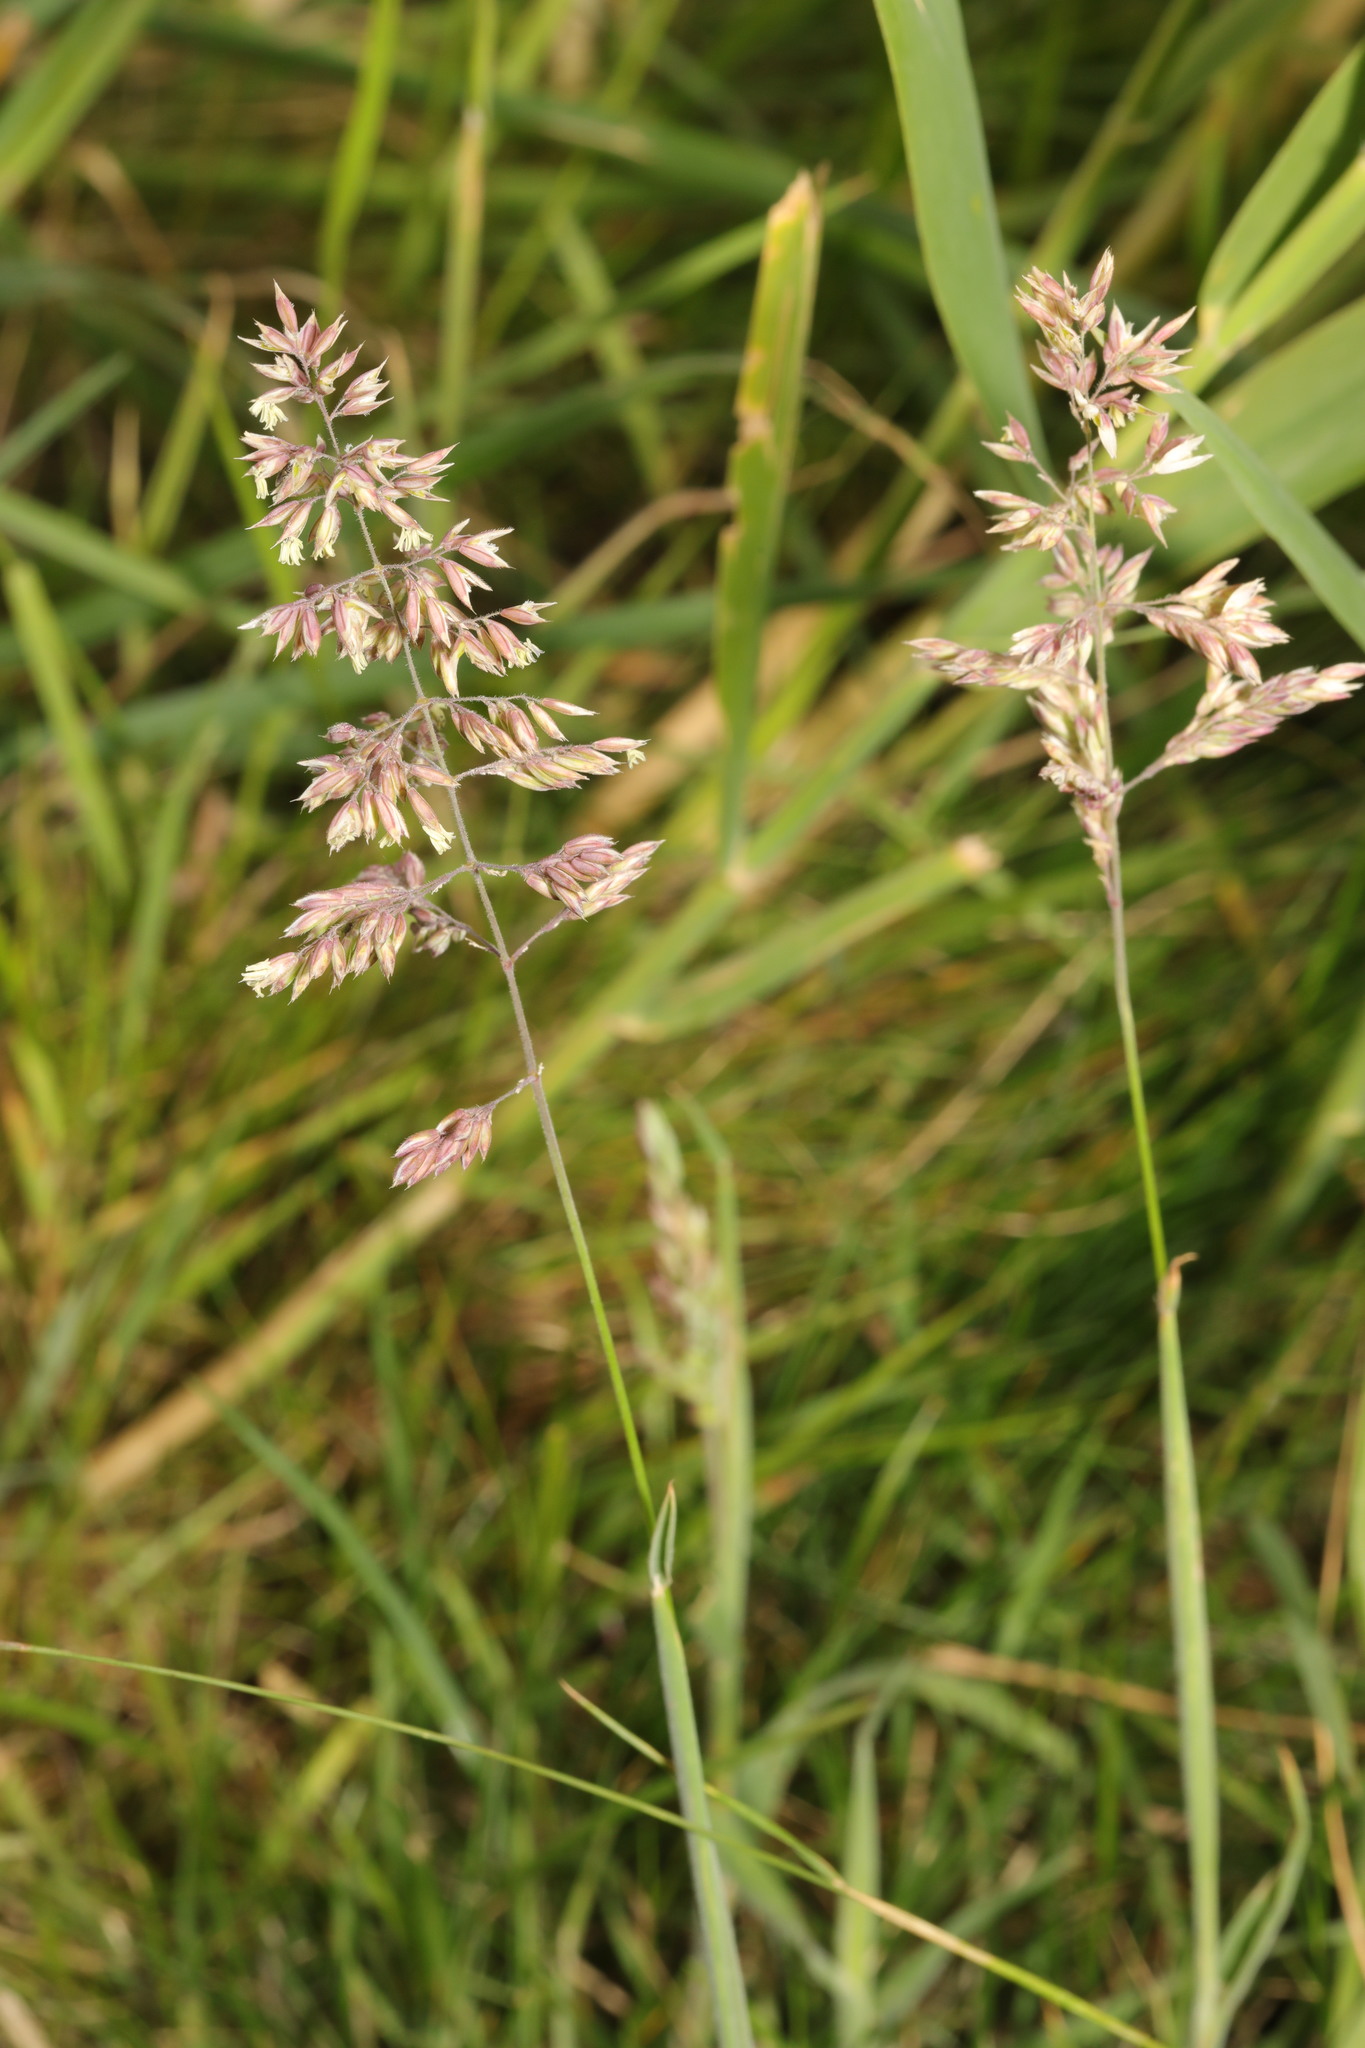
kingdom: Plantae
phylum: Tracheophyta
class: Liliopsida
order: Poales
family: Poaceae
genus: Holcus
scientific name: Holcus lanatus
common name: Yorkshire-fog
